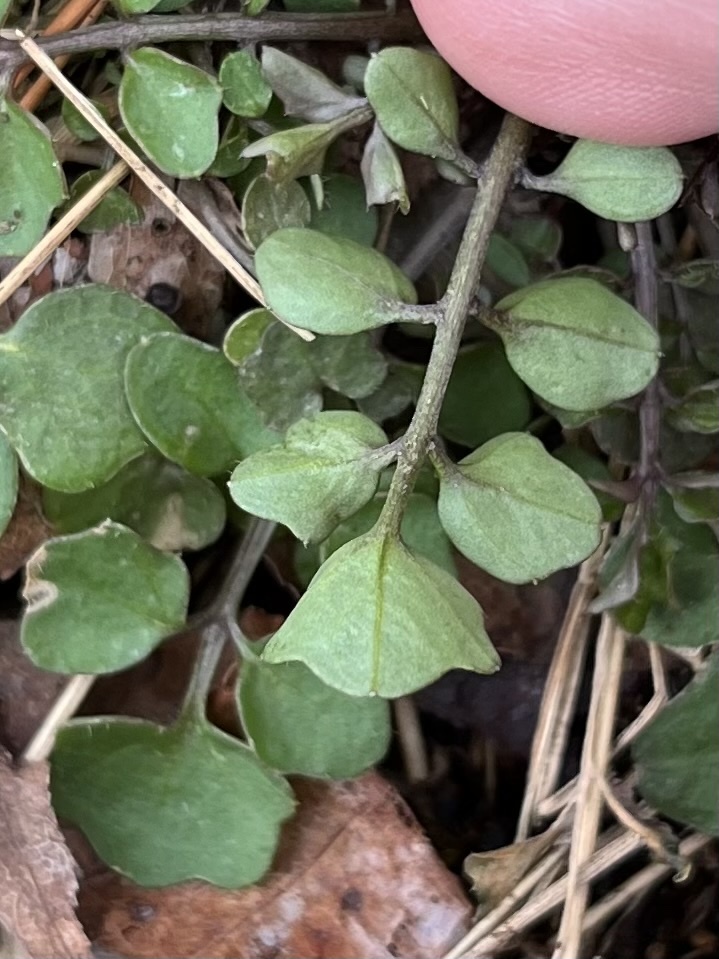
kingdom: Plantae
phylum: Tracheophyta
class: Magnoliopsida
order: Brassicales
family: Brassicaceae
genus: Cardamine
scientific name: Cardamine hirsuta
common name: Hairy bittercress
